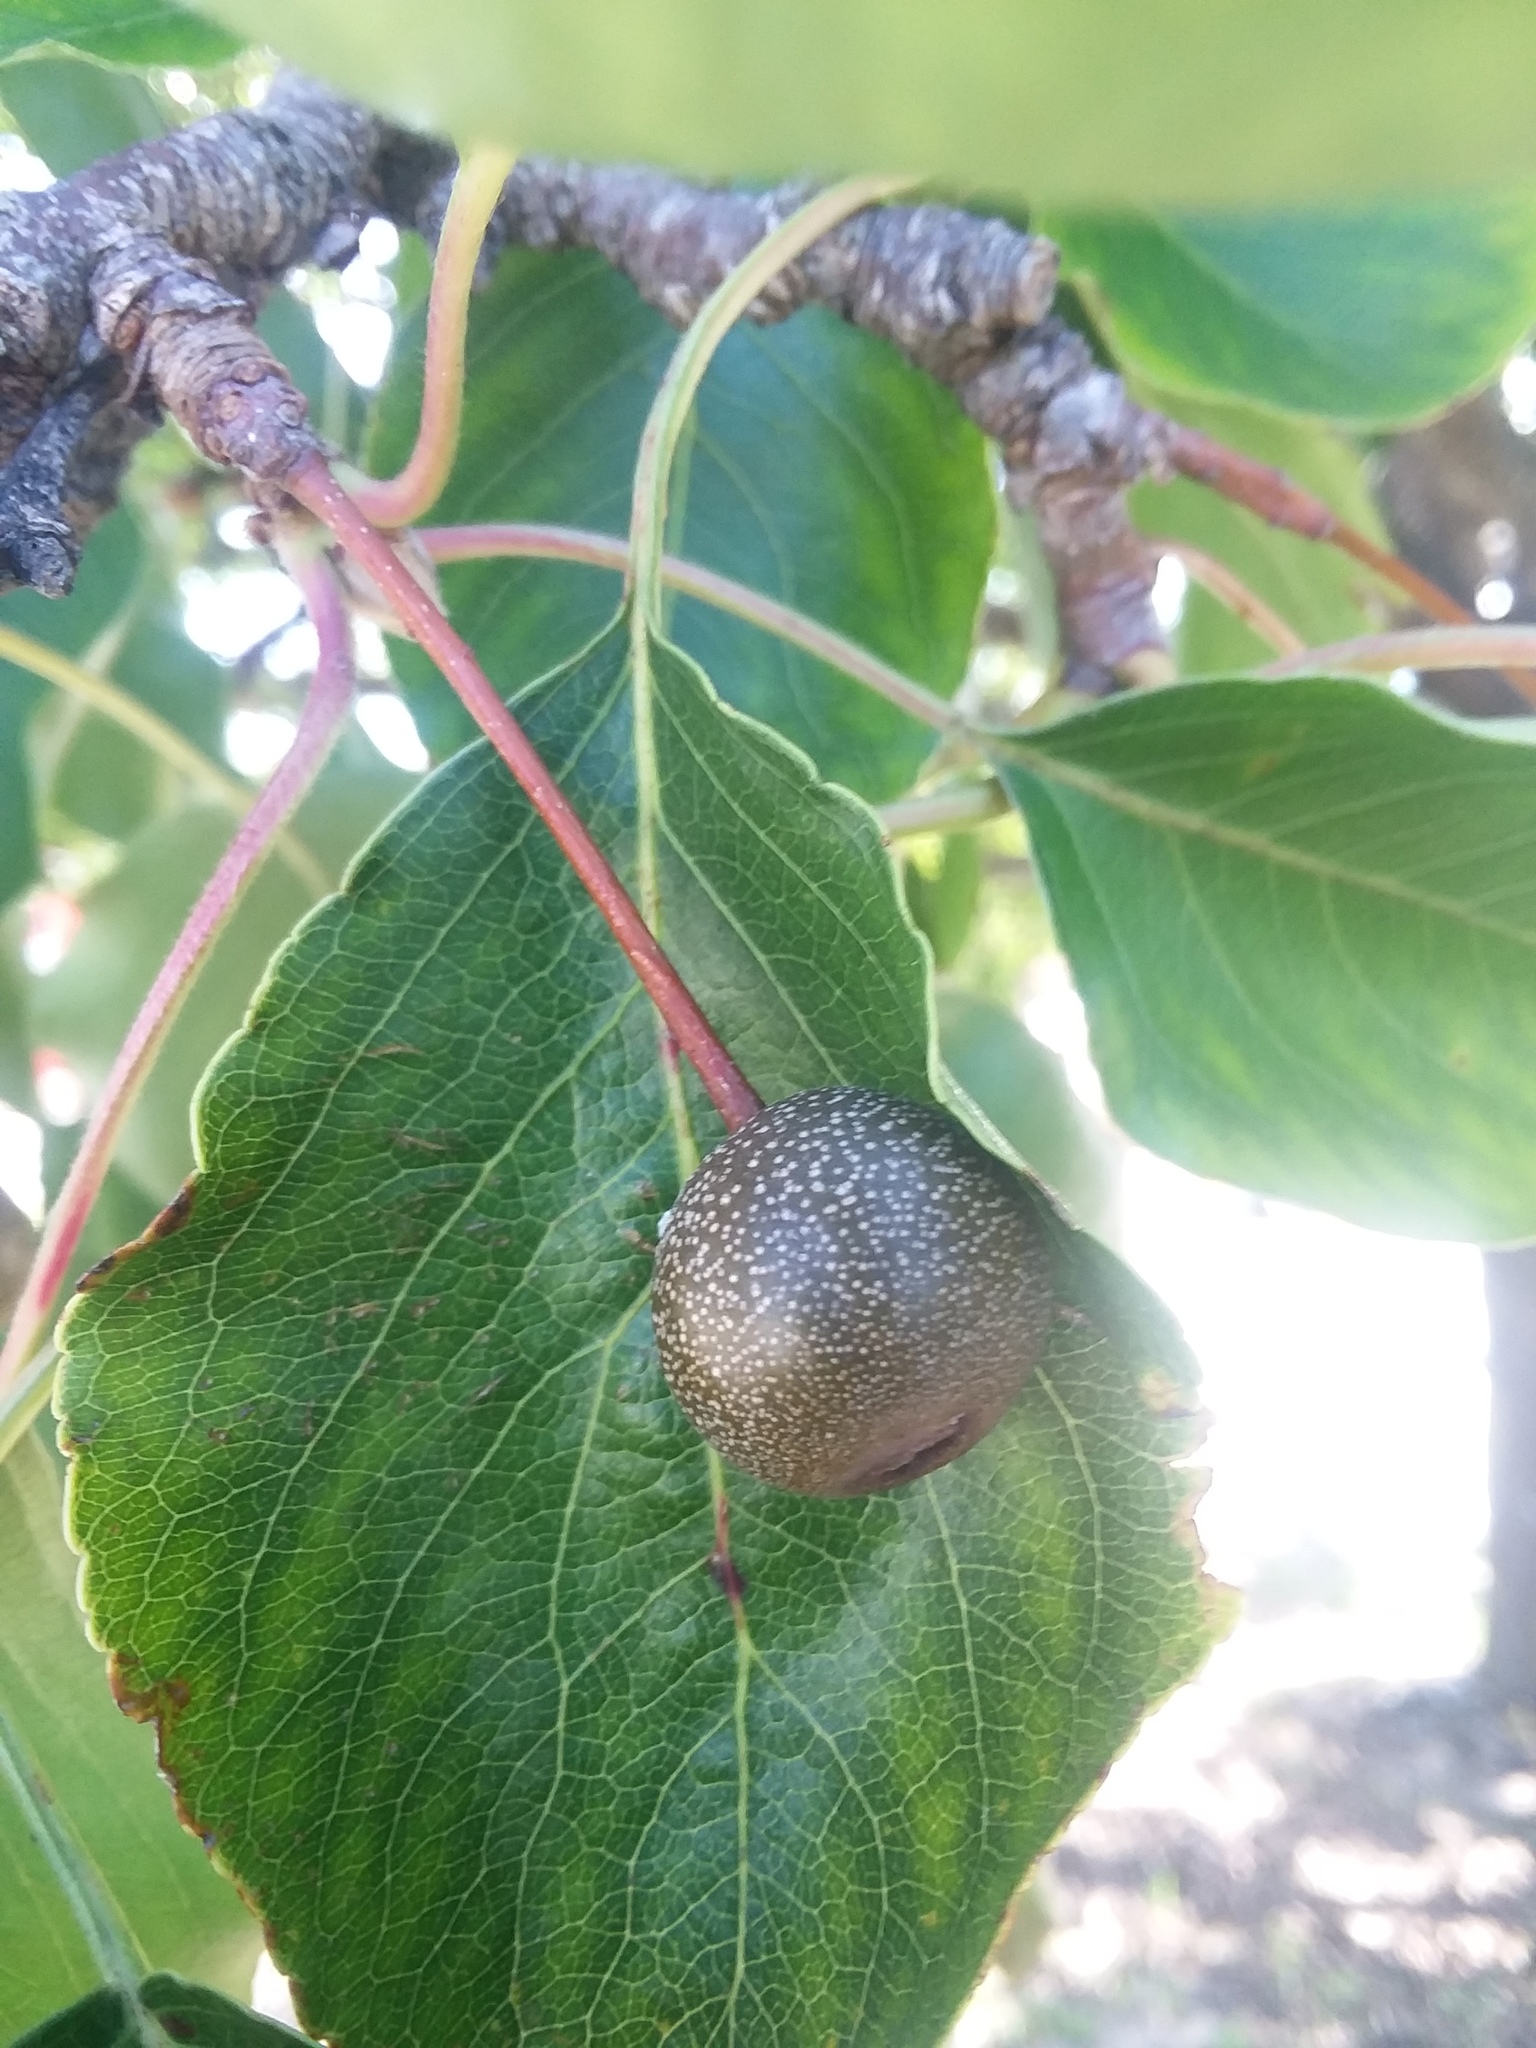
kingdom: Plantae
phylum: Tracheophyta
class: Magnoliopsida
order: Rosales
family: Rosaceae
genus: Pyrus
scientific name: Pyrus calleryana
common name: Callery pear
